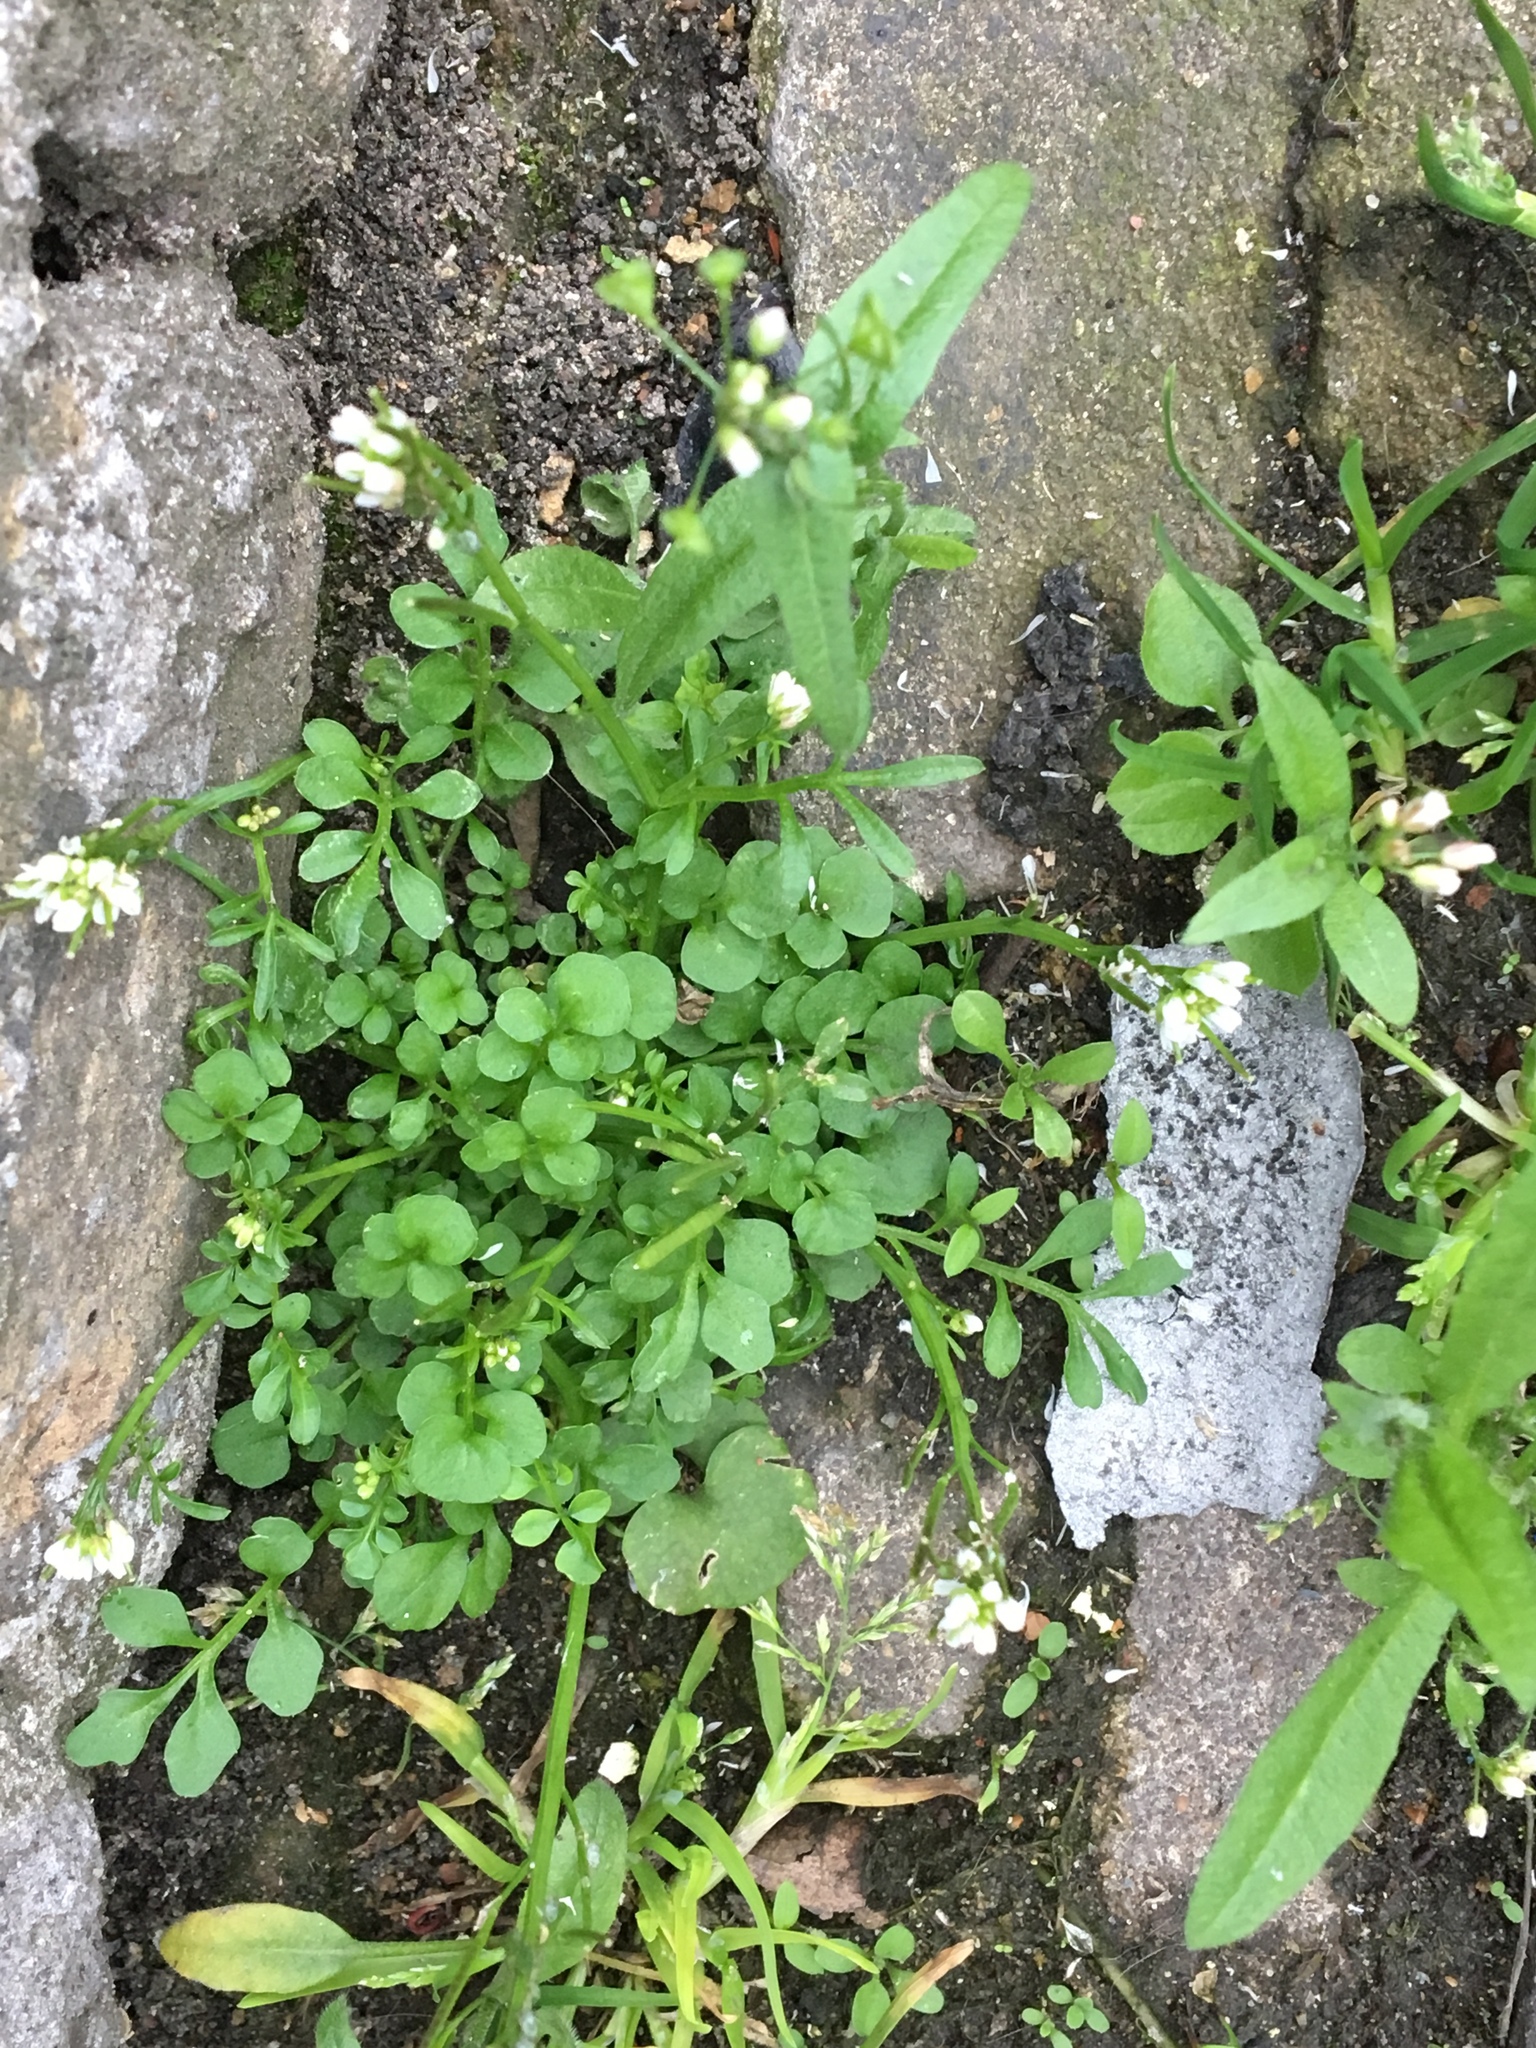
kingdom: Plantae
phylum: Tracheophyta
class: Magnoliopsida
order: Brassicales
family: Brassicaceae
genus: Cardamine
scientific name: Cardamine hirsuta
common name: Hairy bittercress
